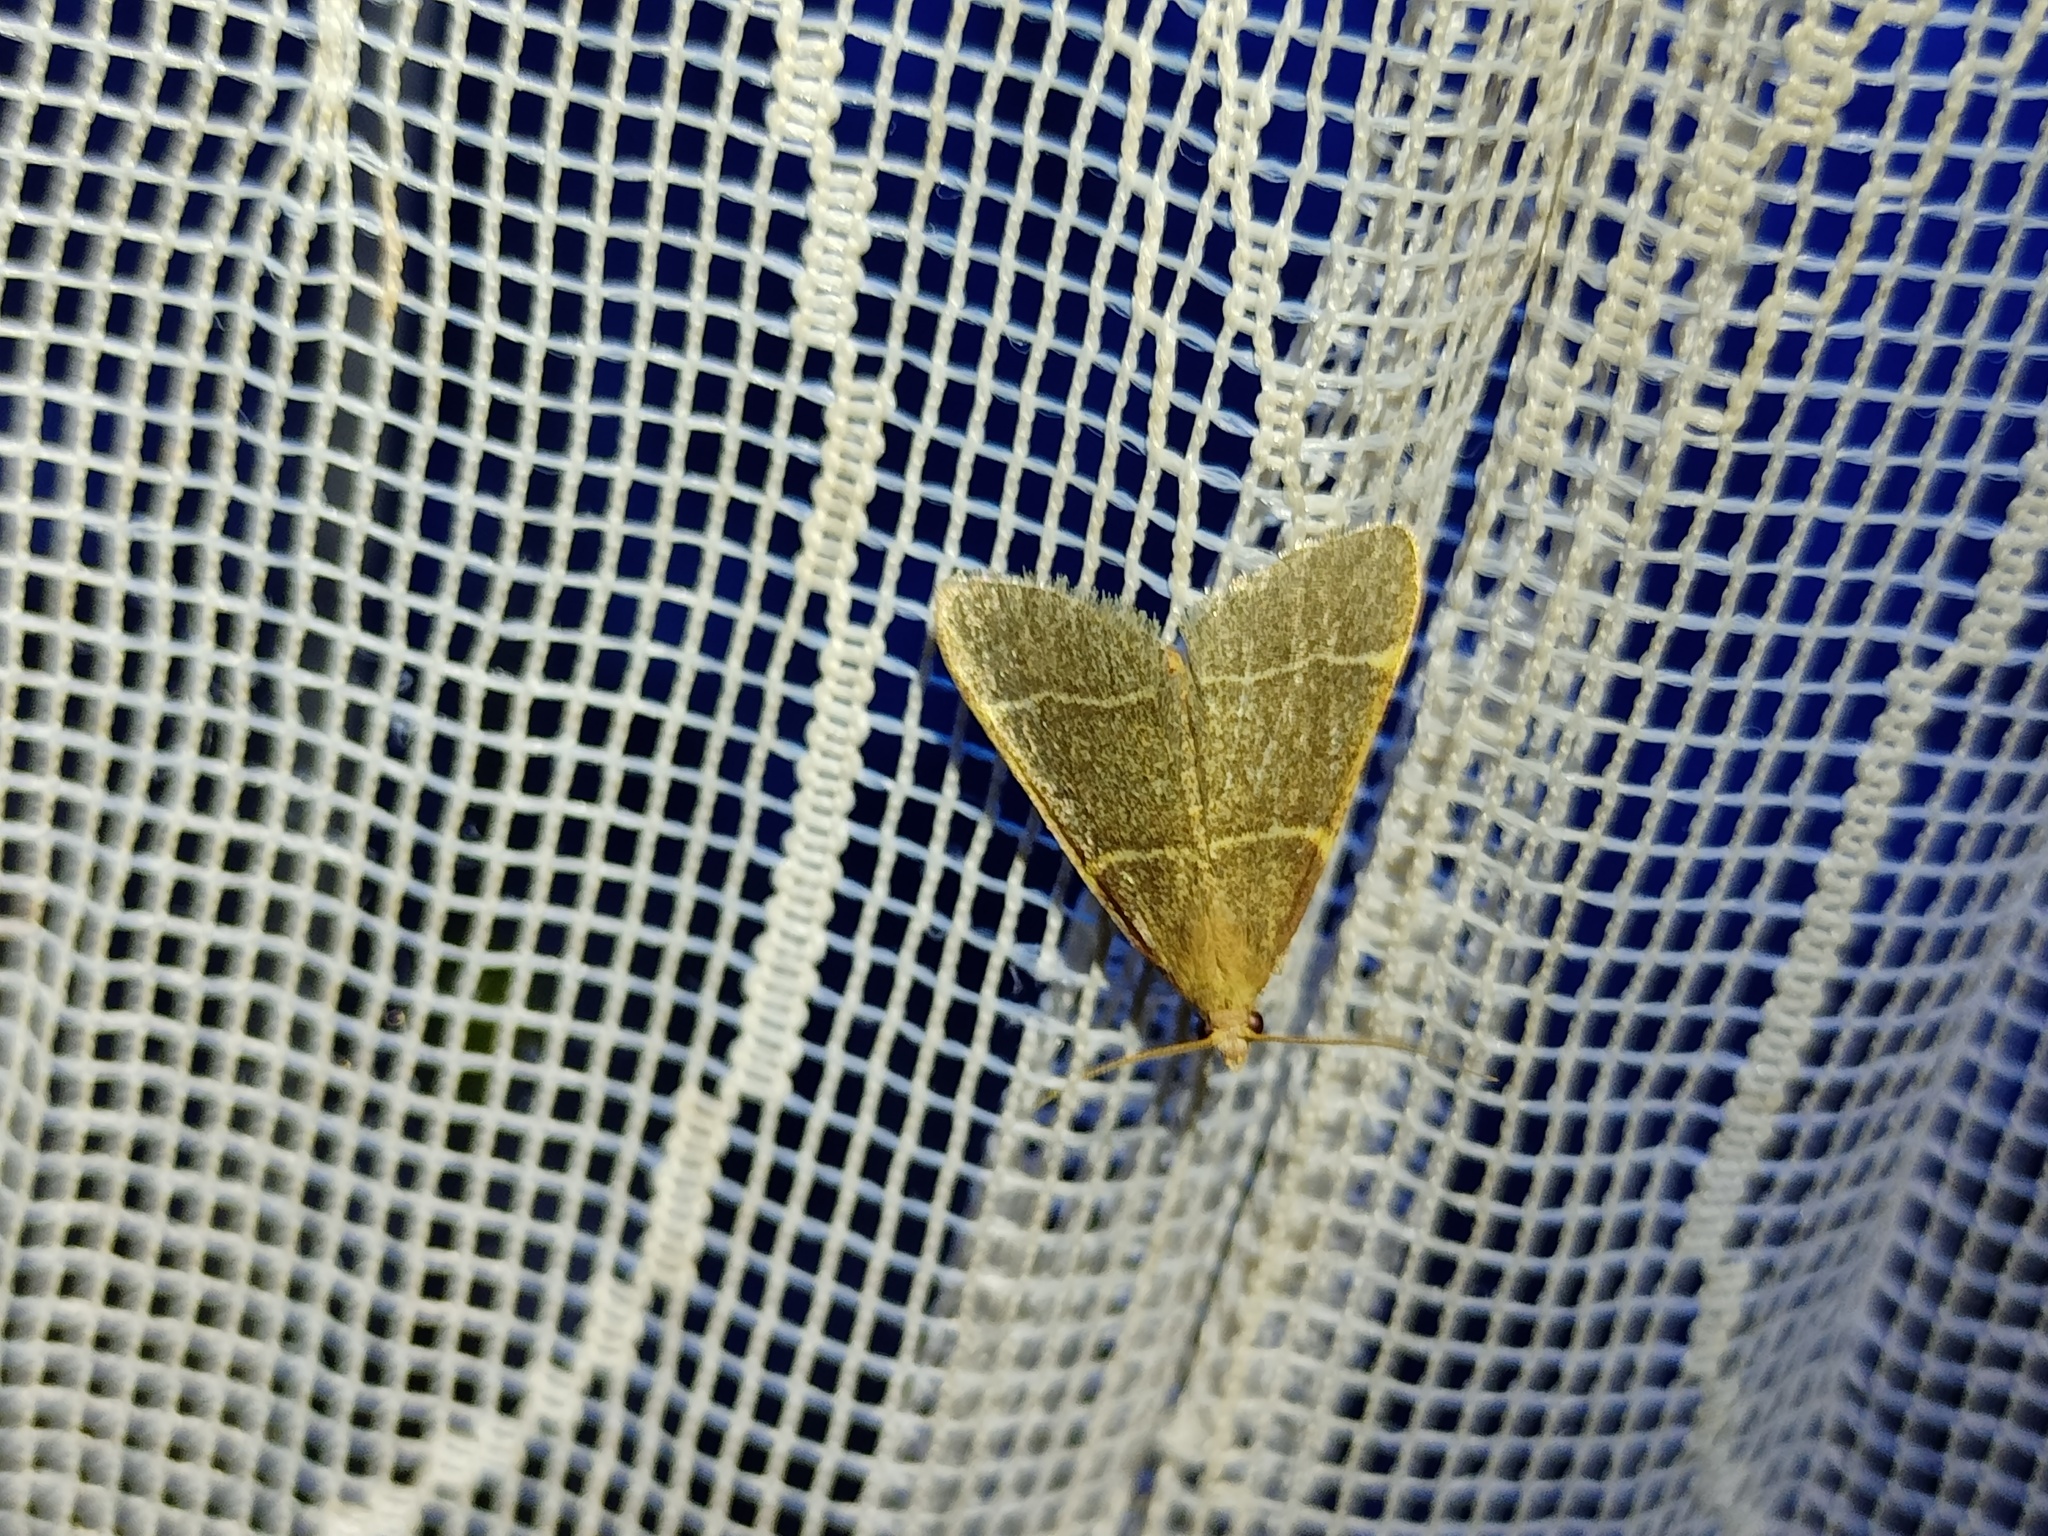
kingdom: Animalia
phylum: Arthropoda
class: Insecta
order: Lepidoptera
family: Pyralidae
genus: Hypsopygia
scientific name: Hypsopygia glaucinalis
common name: Double-striped tabby
